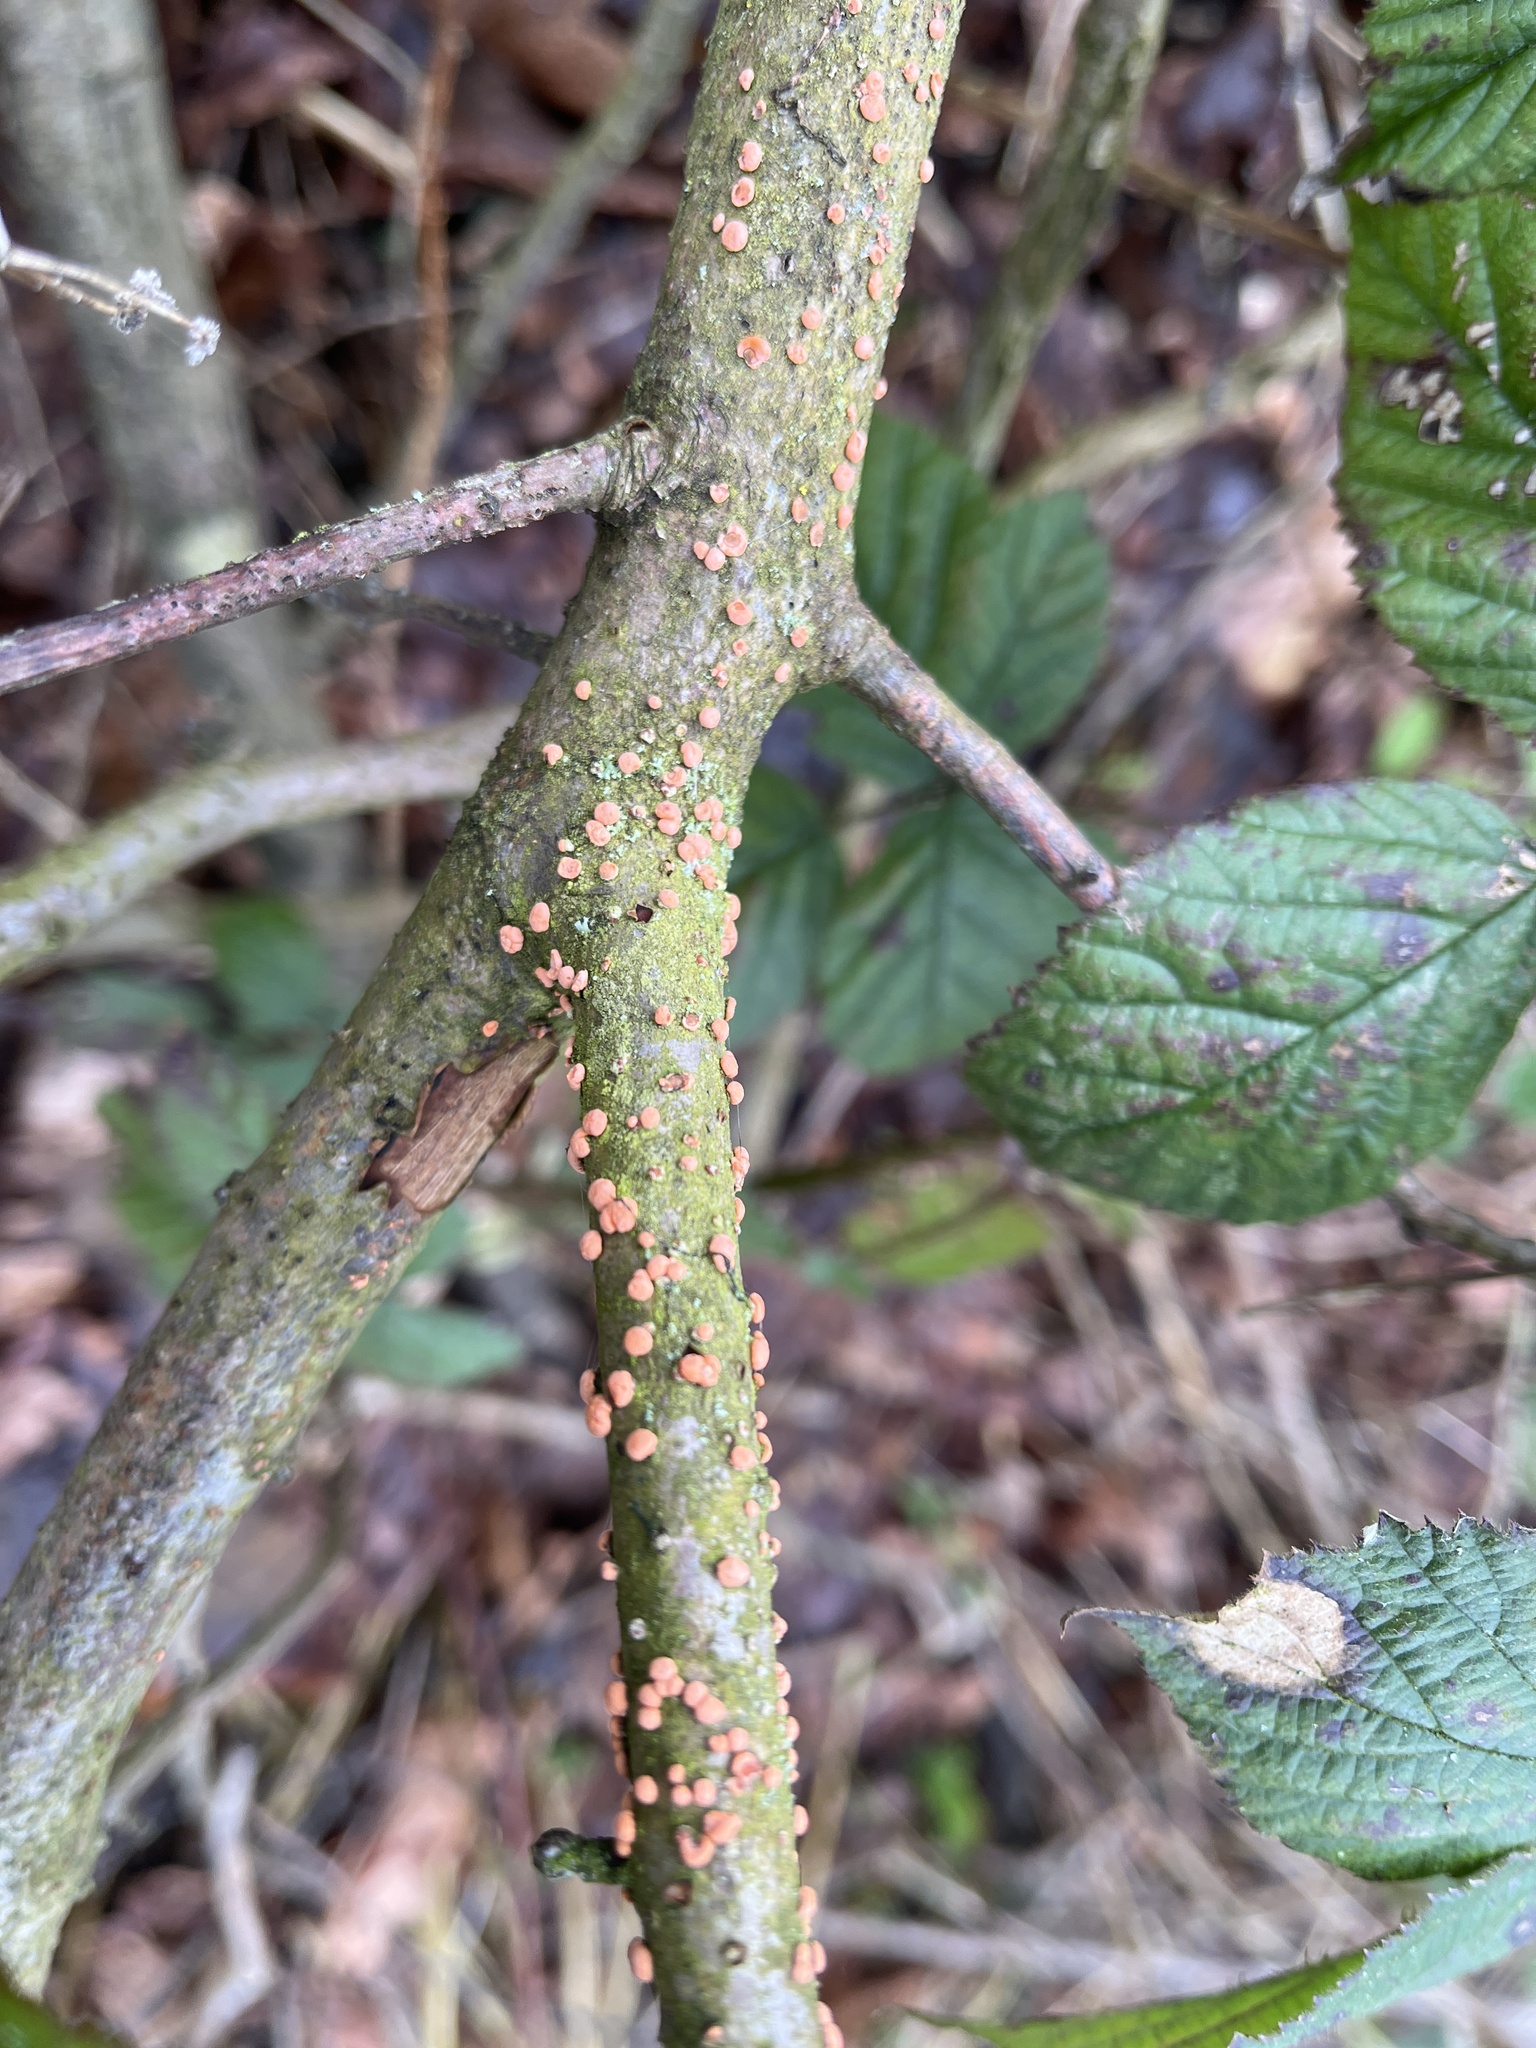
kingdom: Fungi
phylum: Ascomycota
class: Sordariomycetes
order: Hypocreales
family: Nectriaceae
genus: Nectria
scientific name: Nectria cinnabarina
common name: Coral spot
